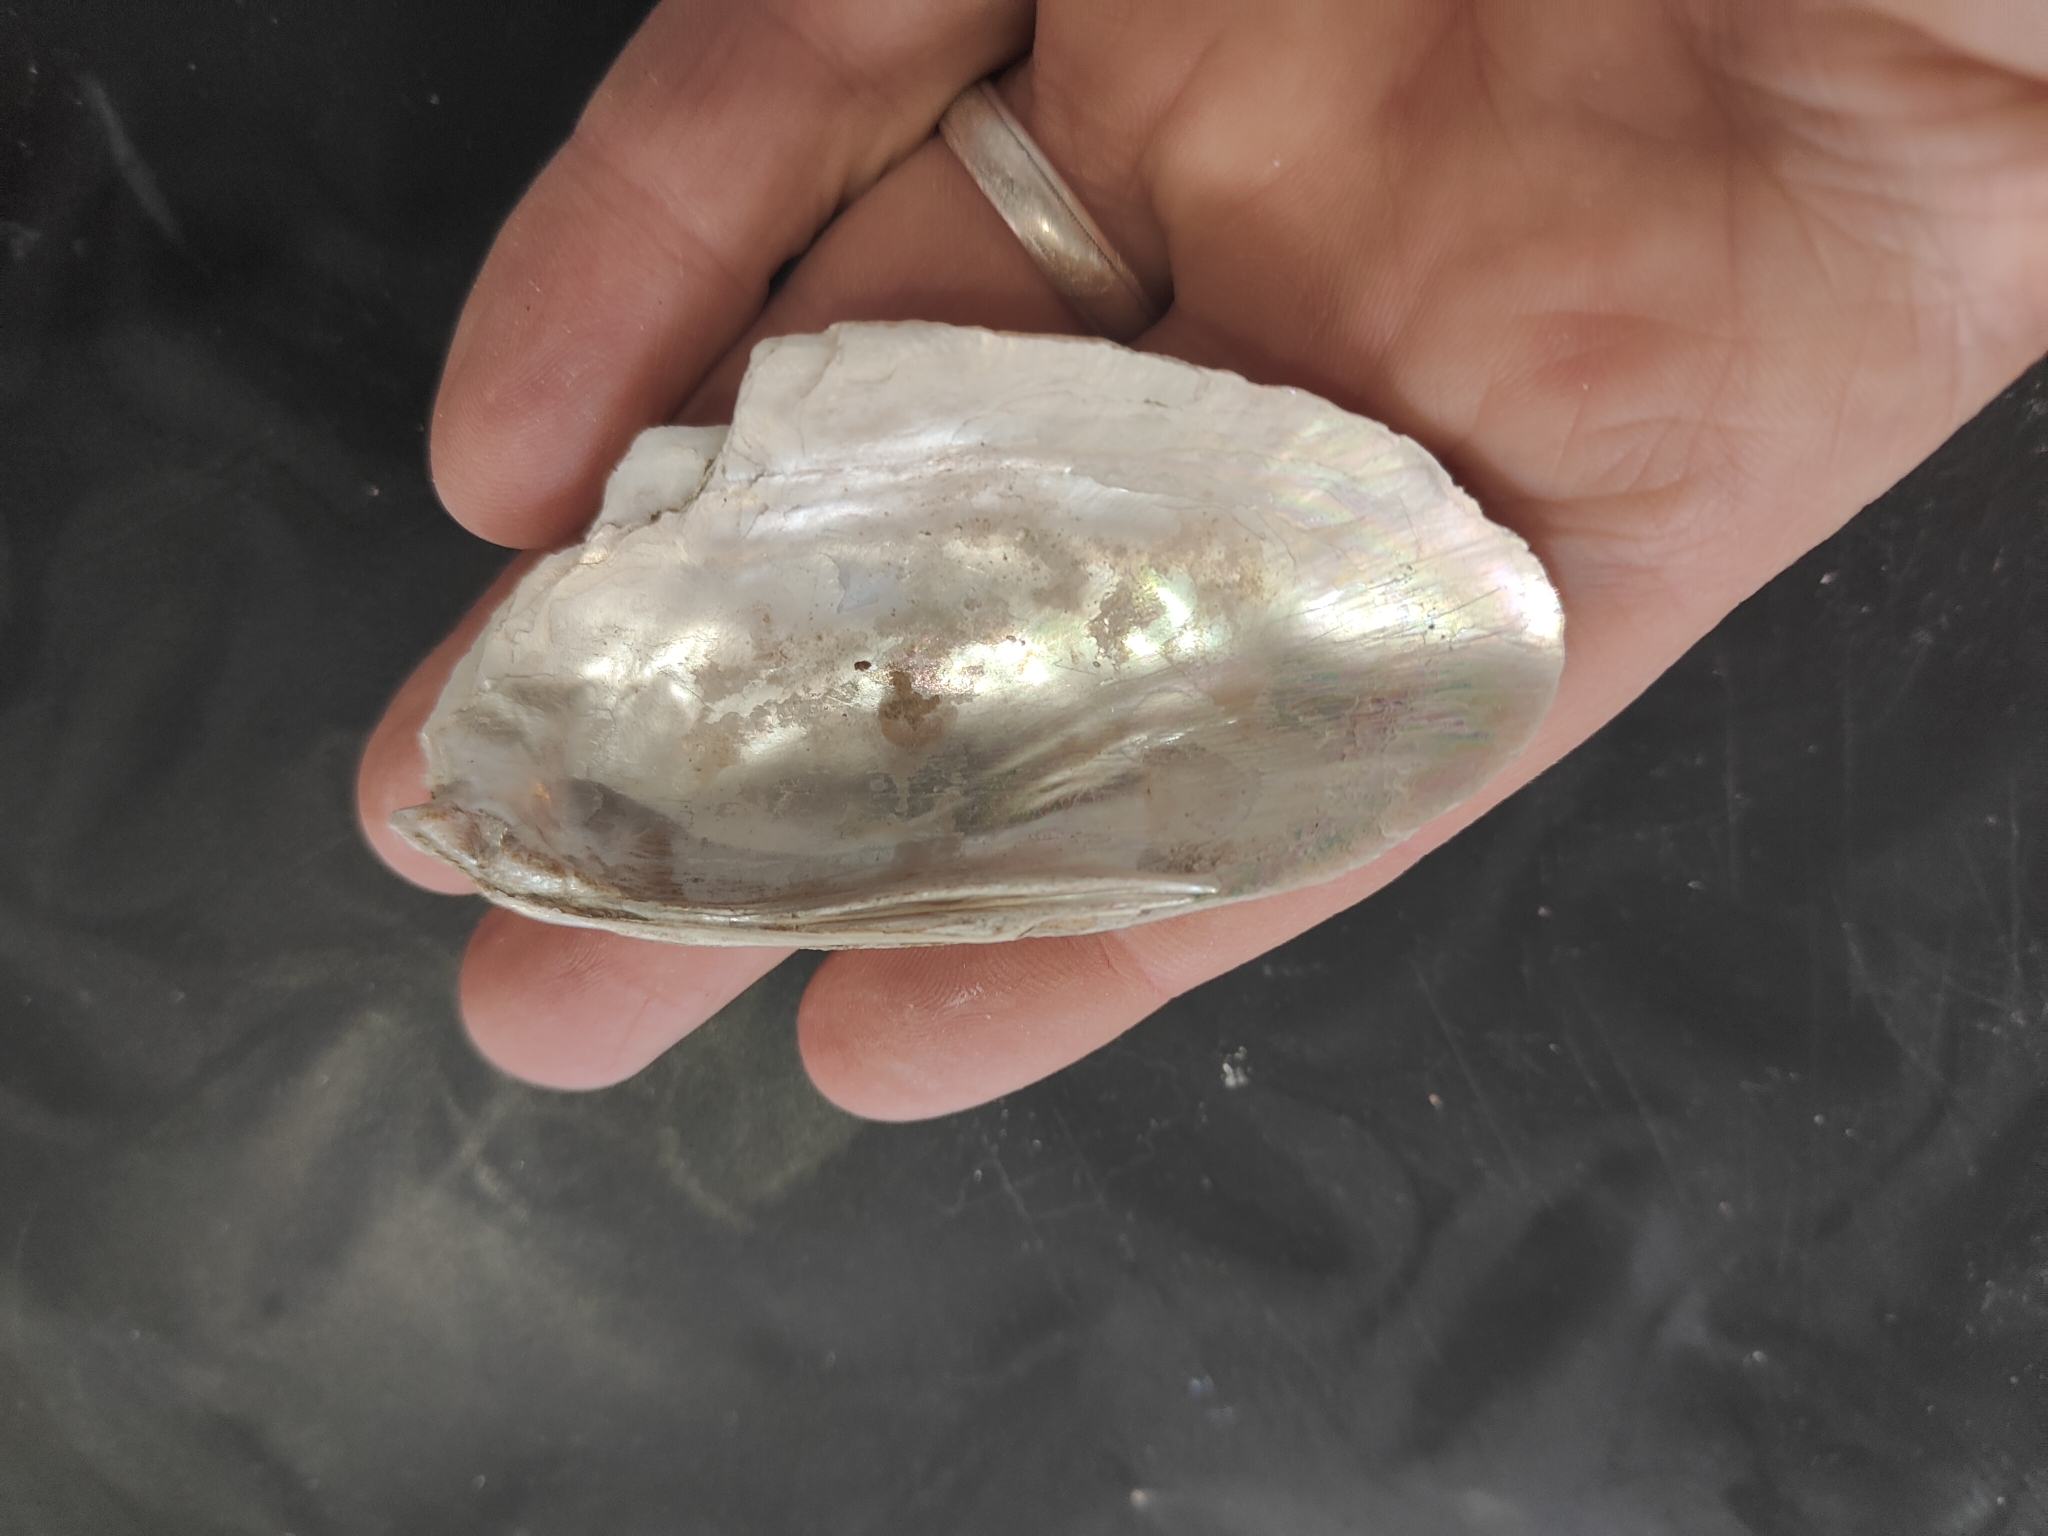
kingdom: Animalia
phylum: Mollusca
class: Bivalvia
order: Unionida
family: Unionidae
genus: Ligumia
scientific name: Ligumia recta
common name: Black sandshell
